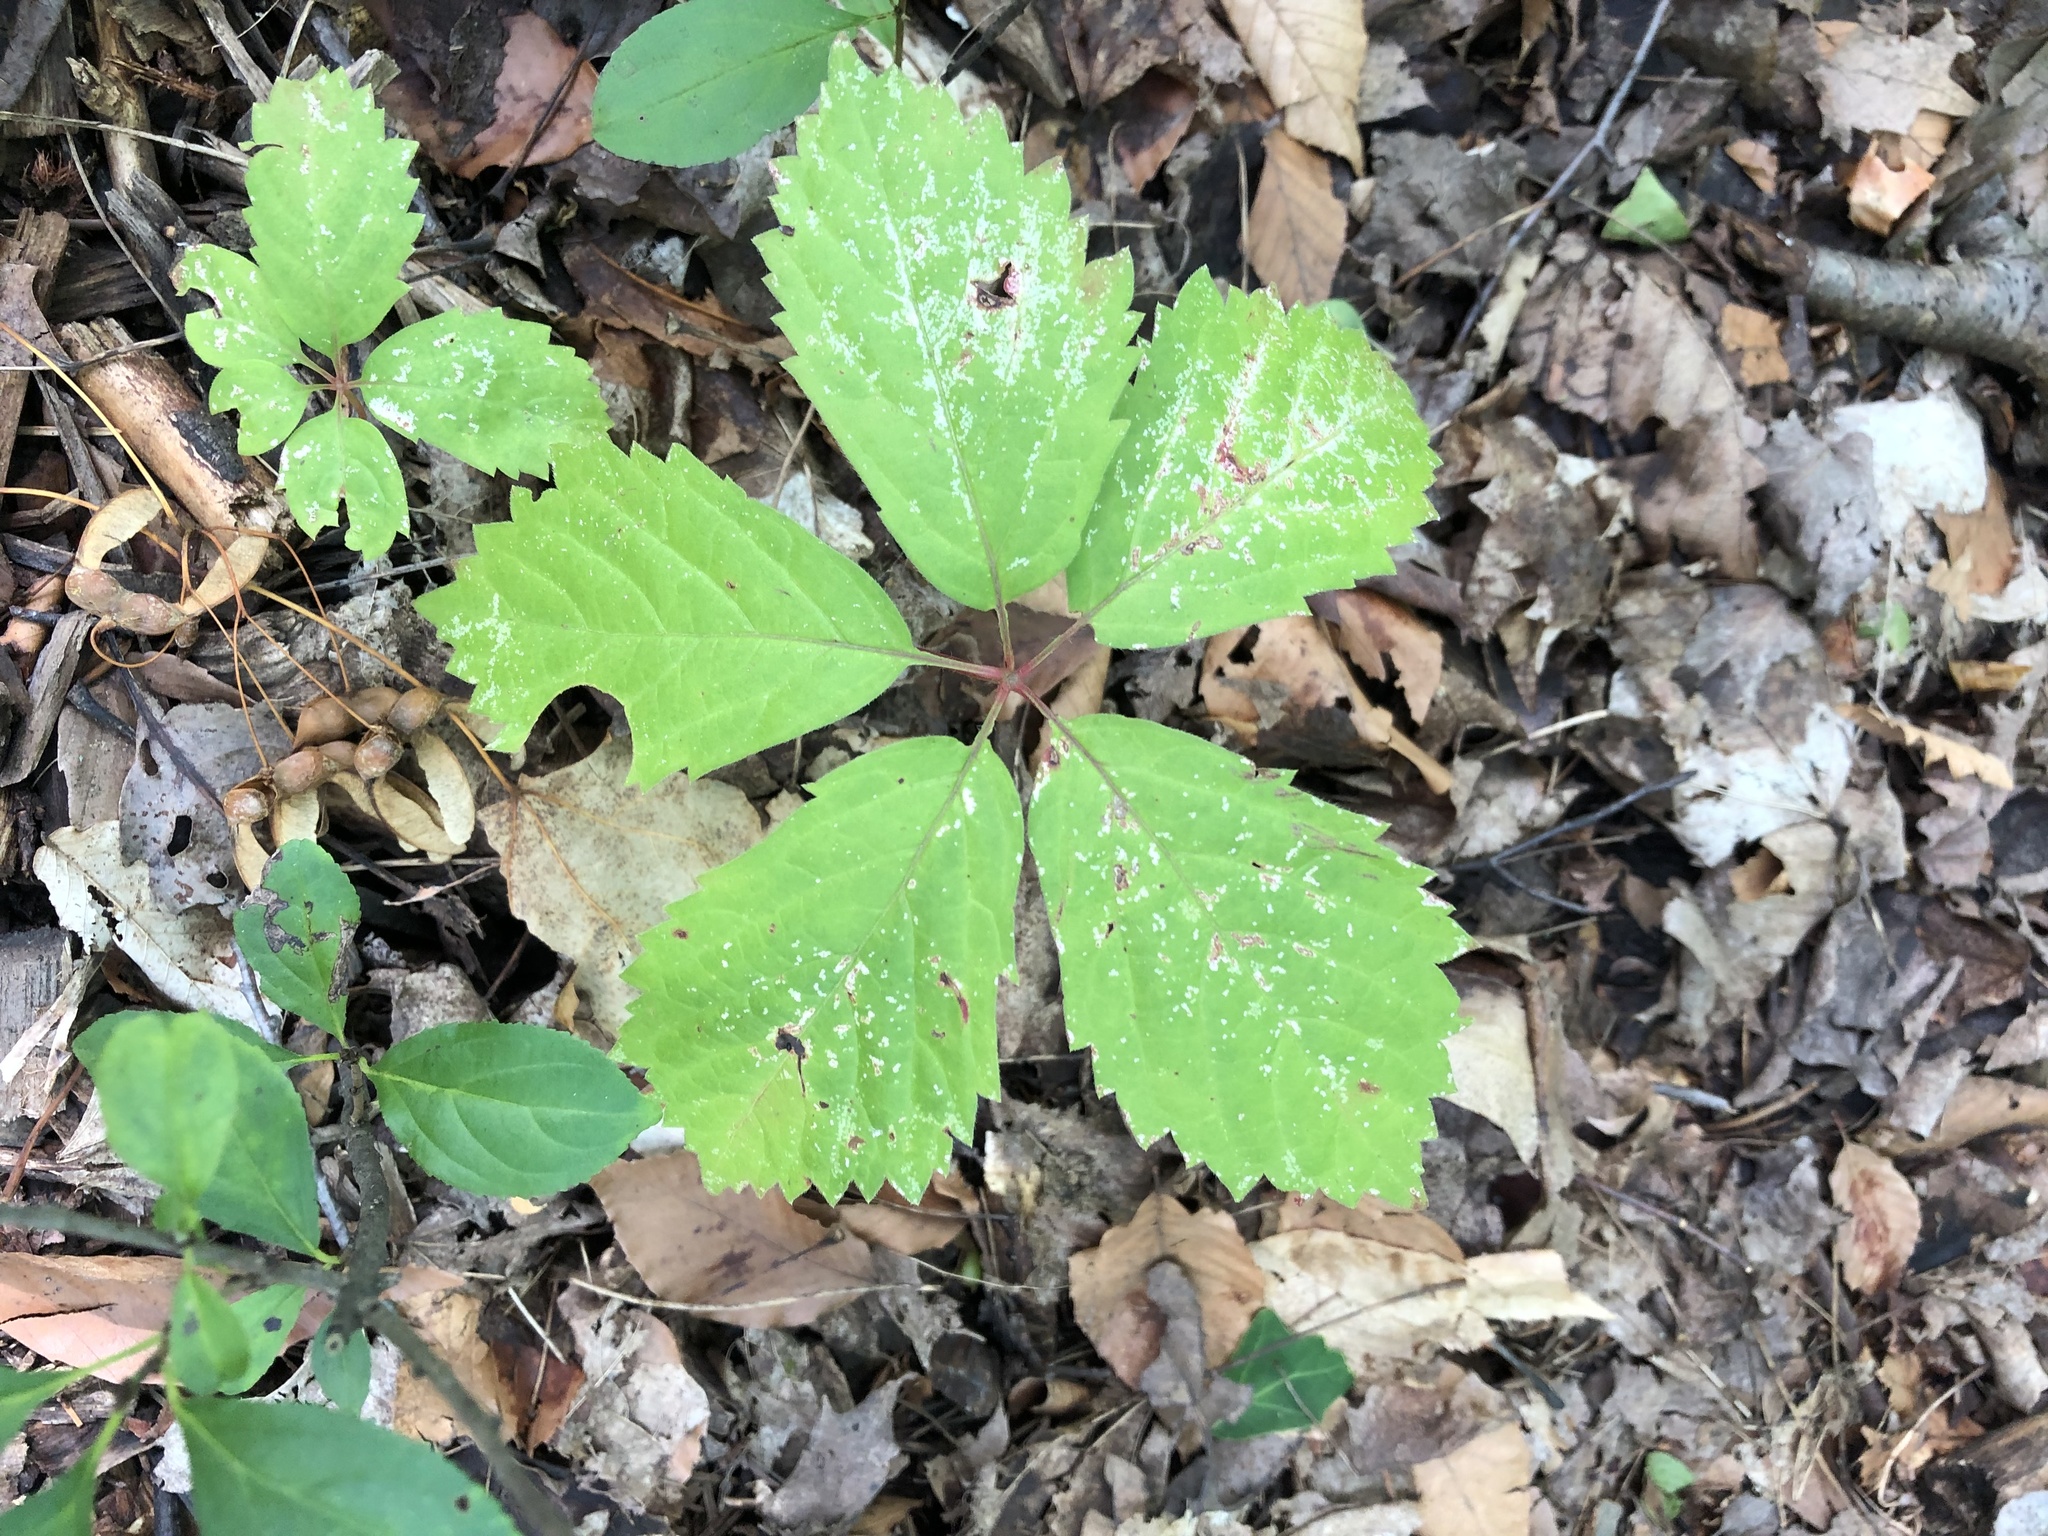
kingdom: Plantae
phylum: Tracheophyta
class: Magnoliopsida
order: Vitales
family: Vitaceae
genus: Parthenocissus
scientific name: Parthenocissus inserta
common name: False virginia-creeper
